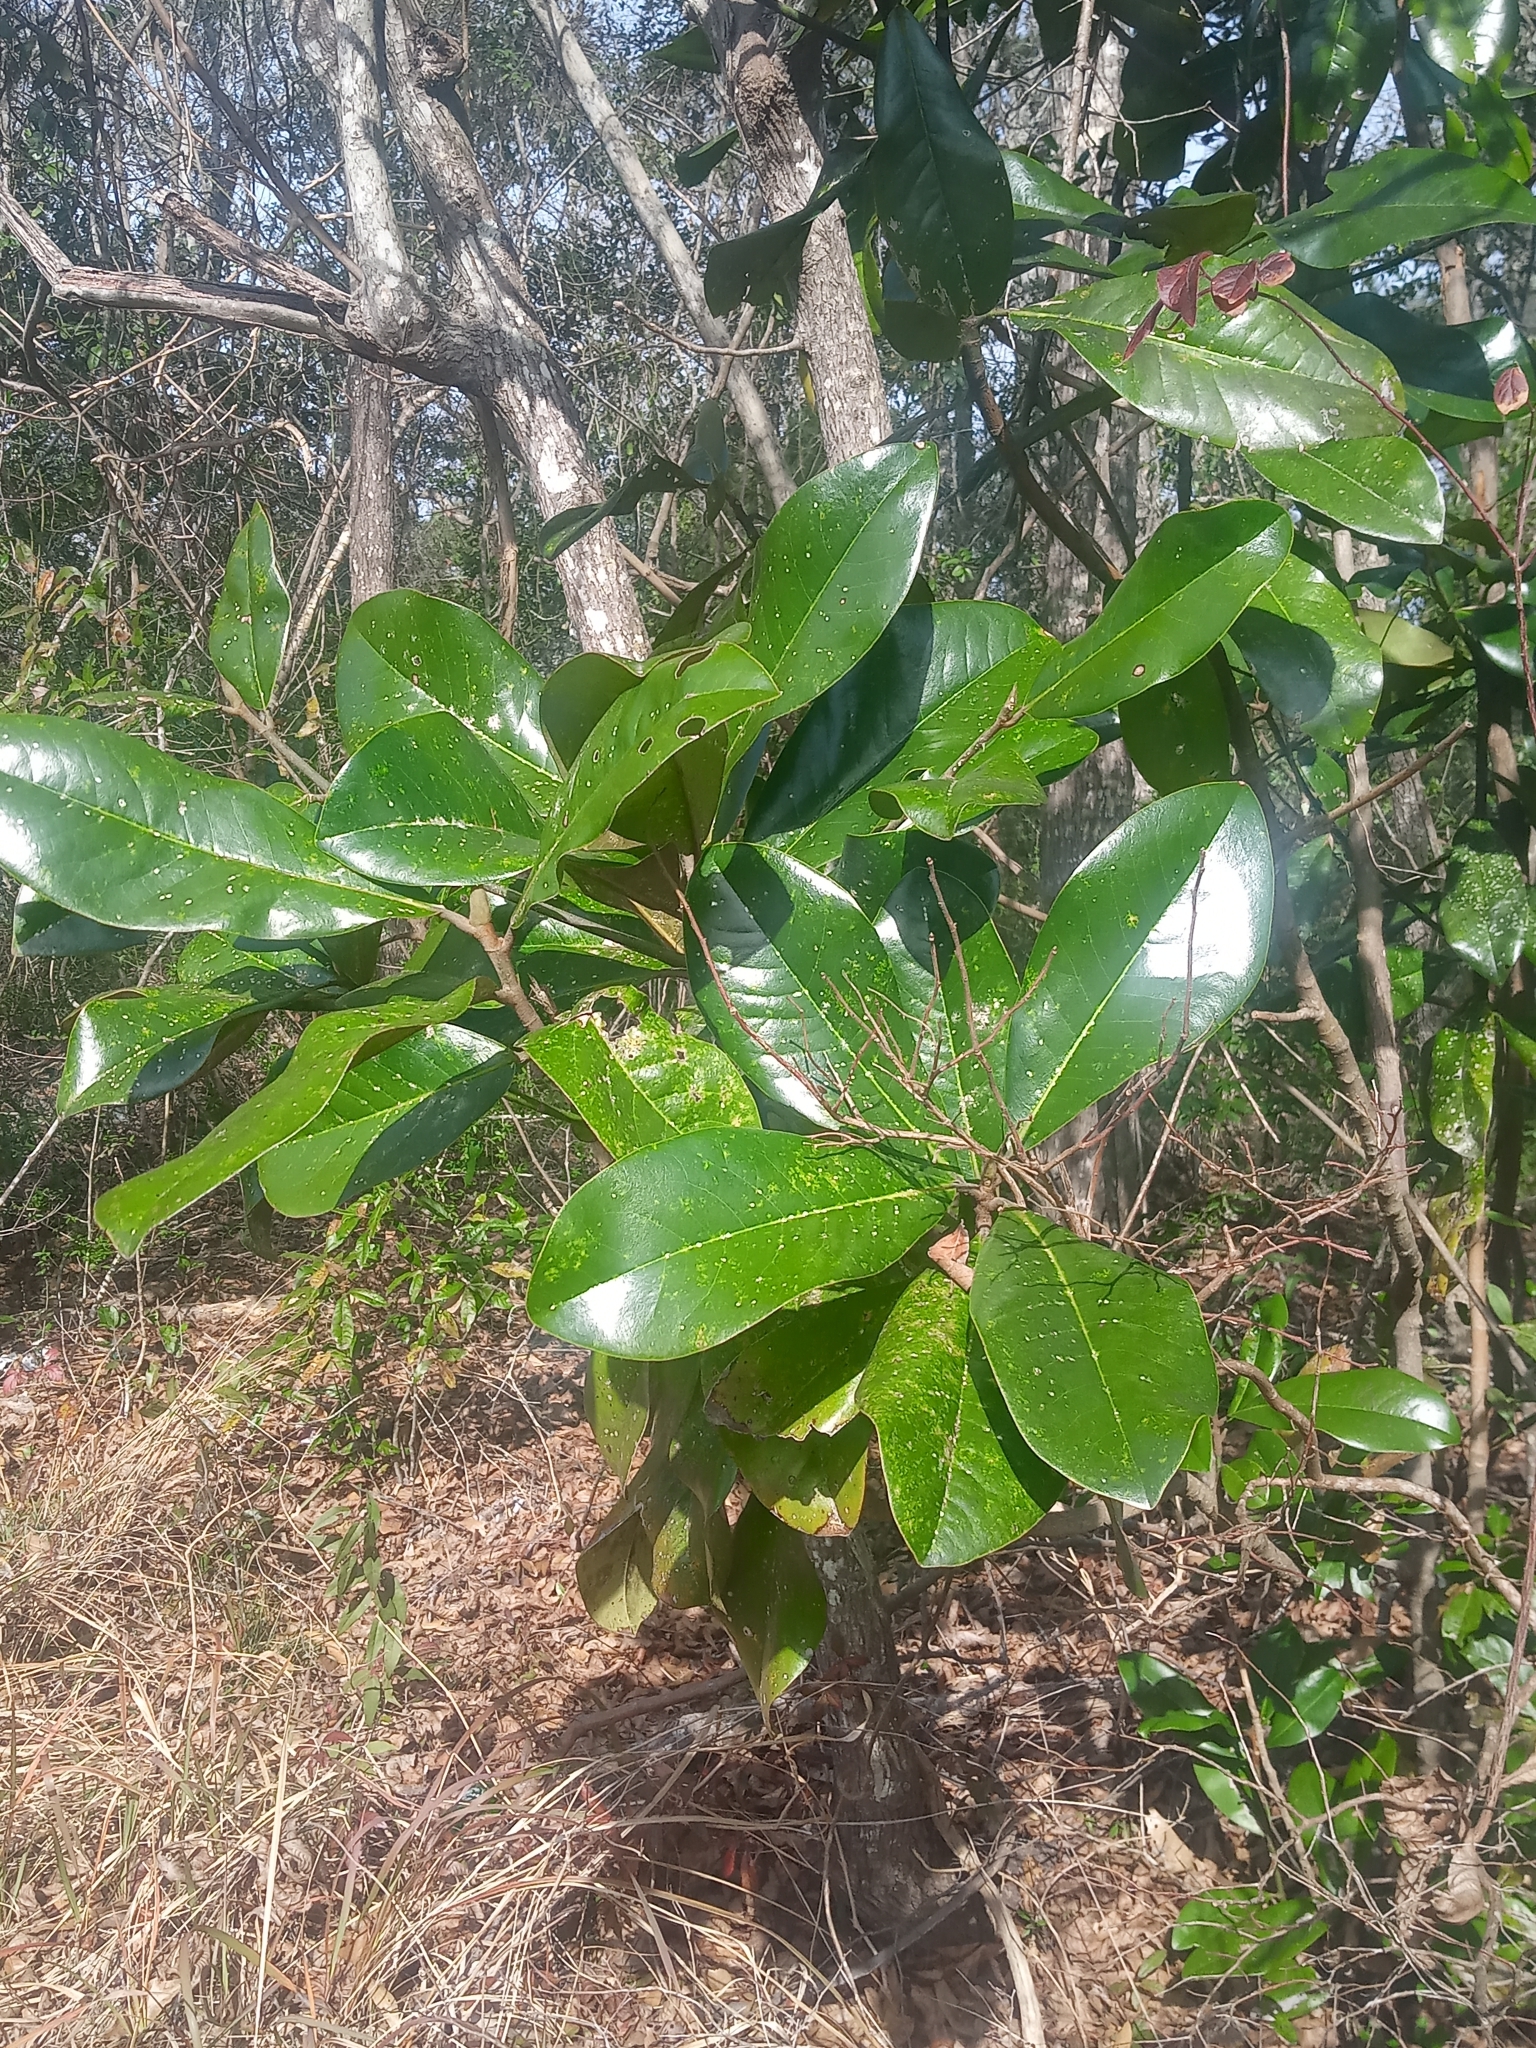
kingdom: Plantae
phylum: Tracheophyta
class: Magnoliopsida
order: Magnoliales
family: Magnoliaceae
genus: Magnolia
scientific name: Magnolia grandiflora
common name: Southern magnolia
